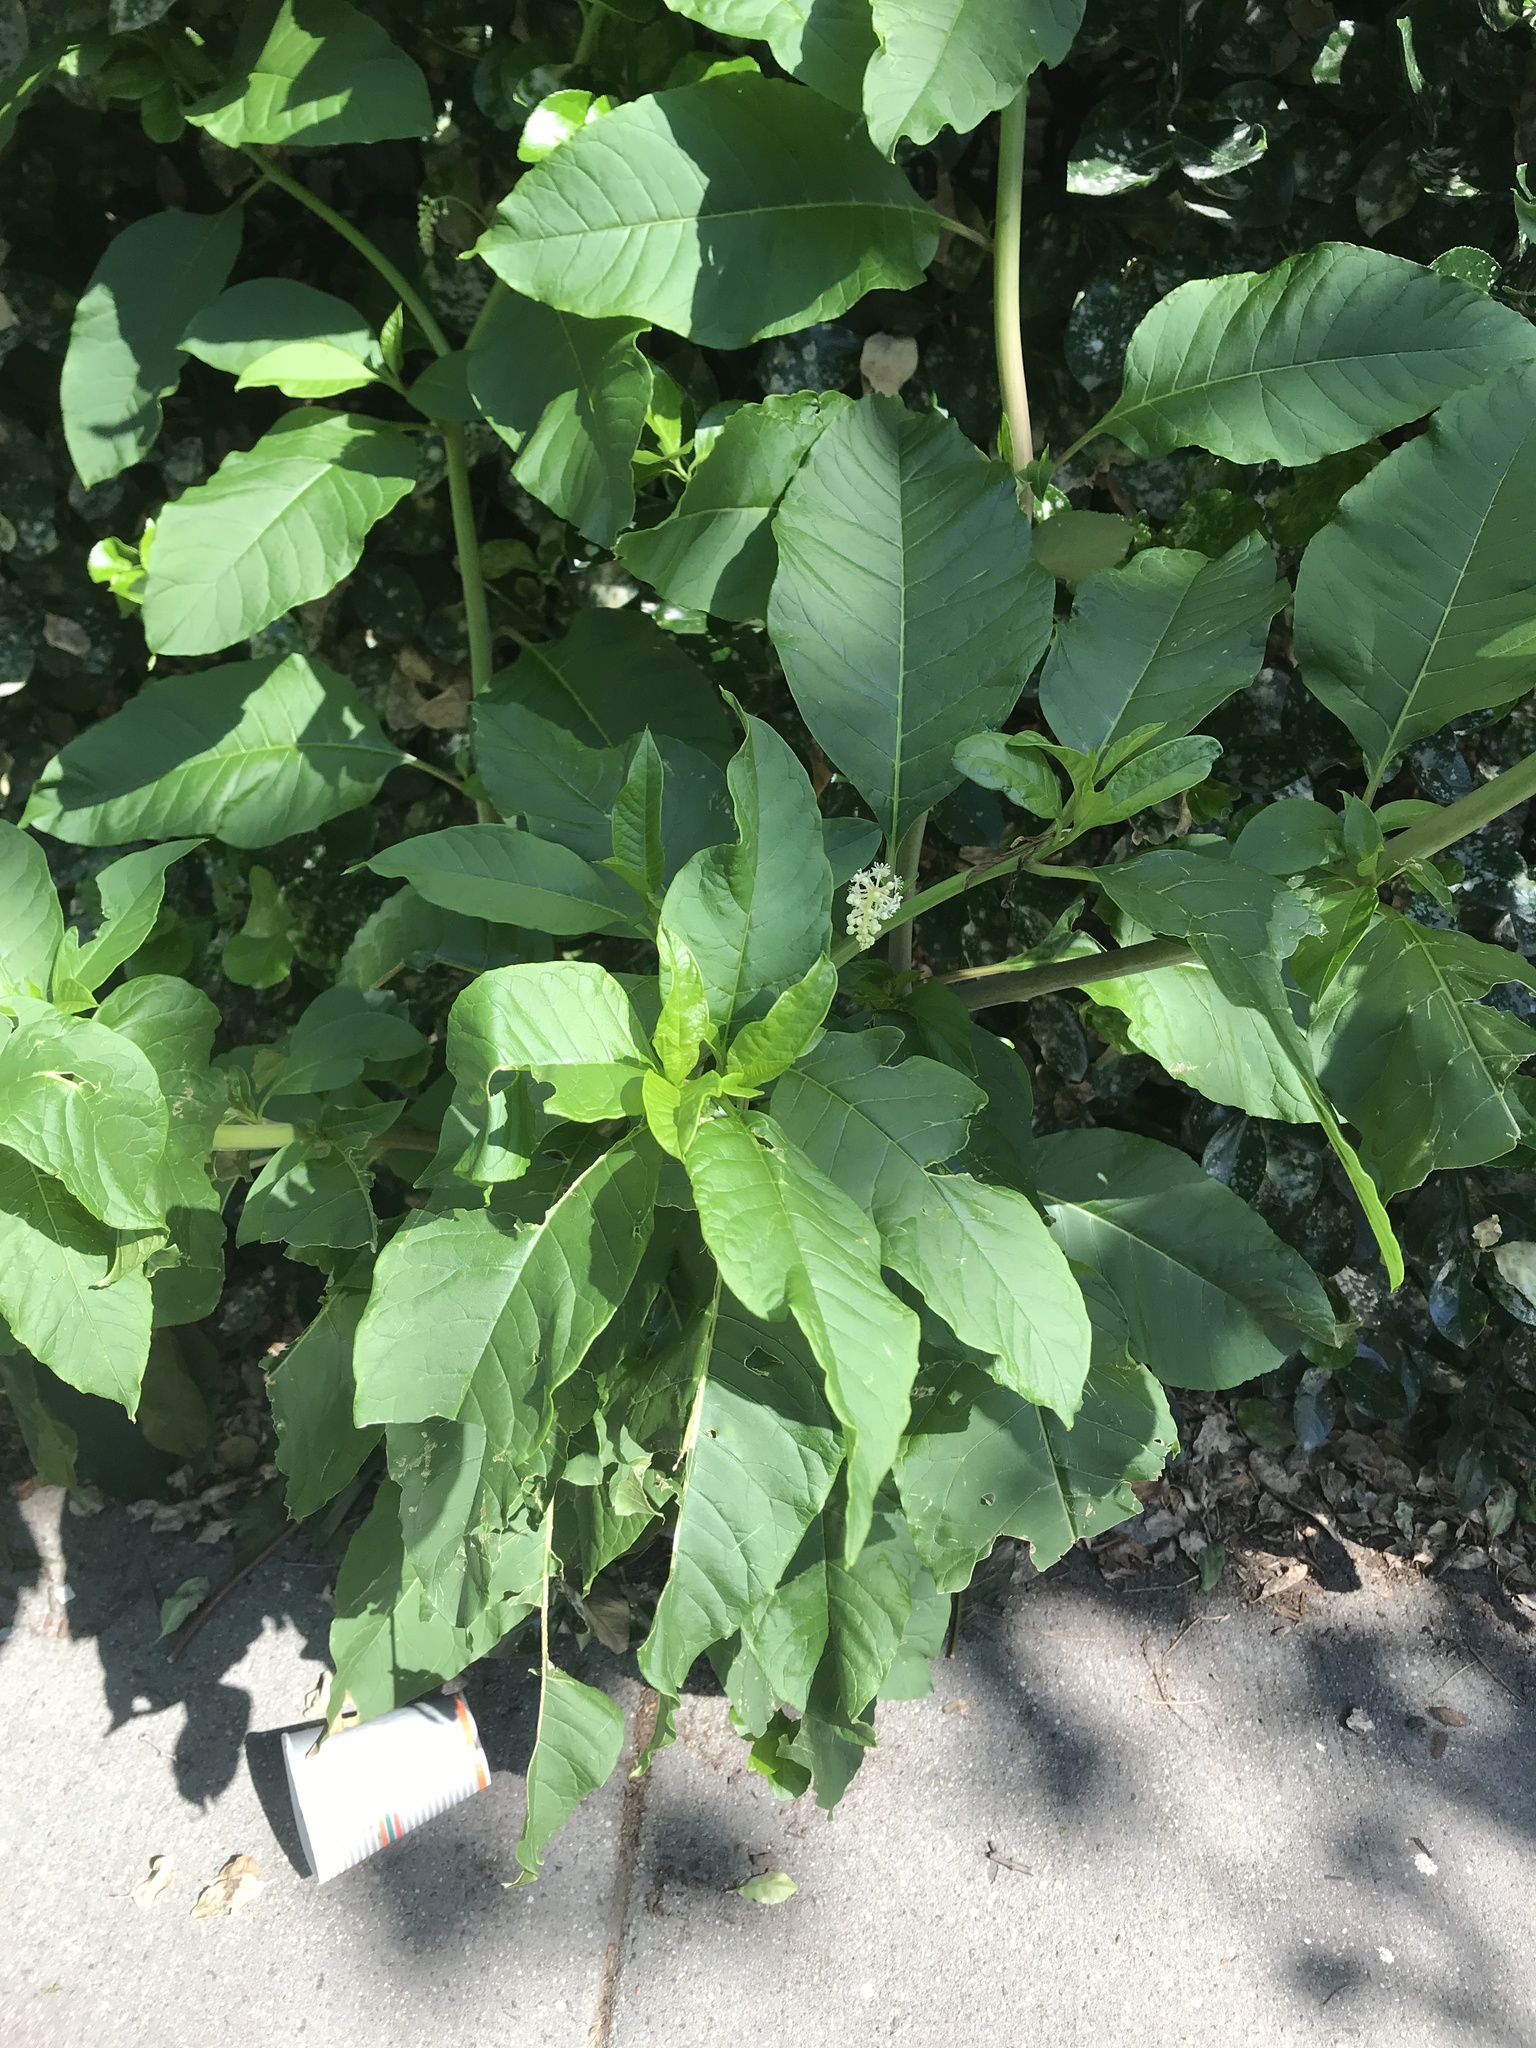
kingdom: Plantae
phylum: Tracheophyta
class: Magnoliopsida
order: Caryophyllales
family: Phytolaccaceae
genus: Phytolacca
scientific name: Phytolacca americana
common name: American pokeweed
